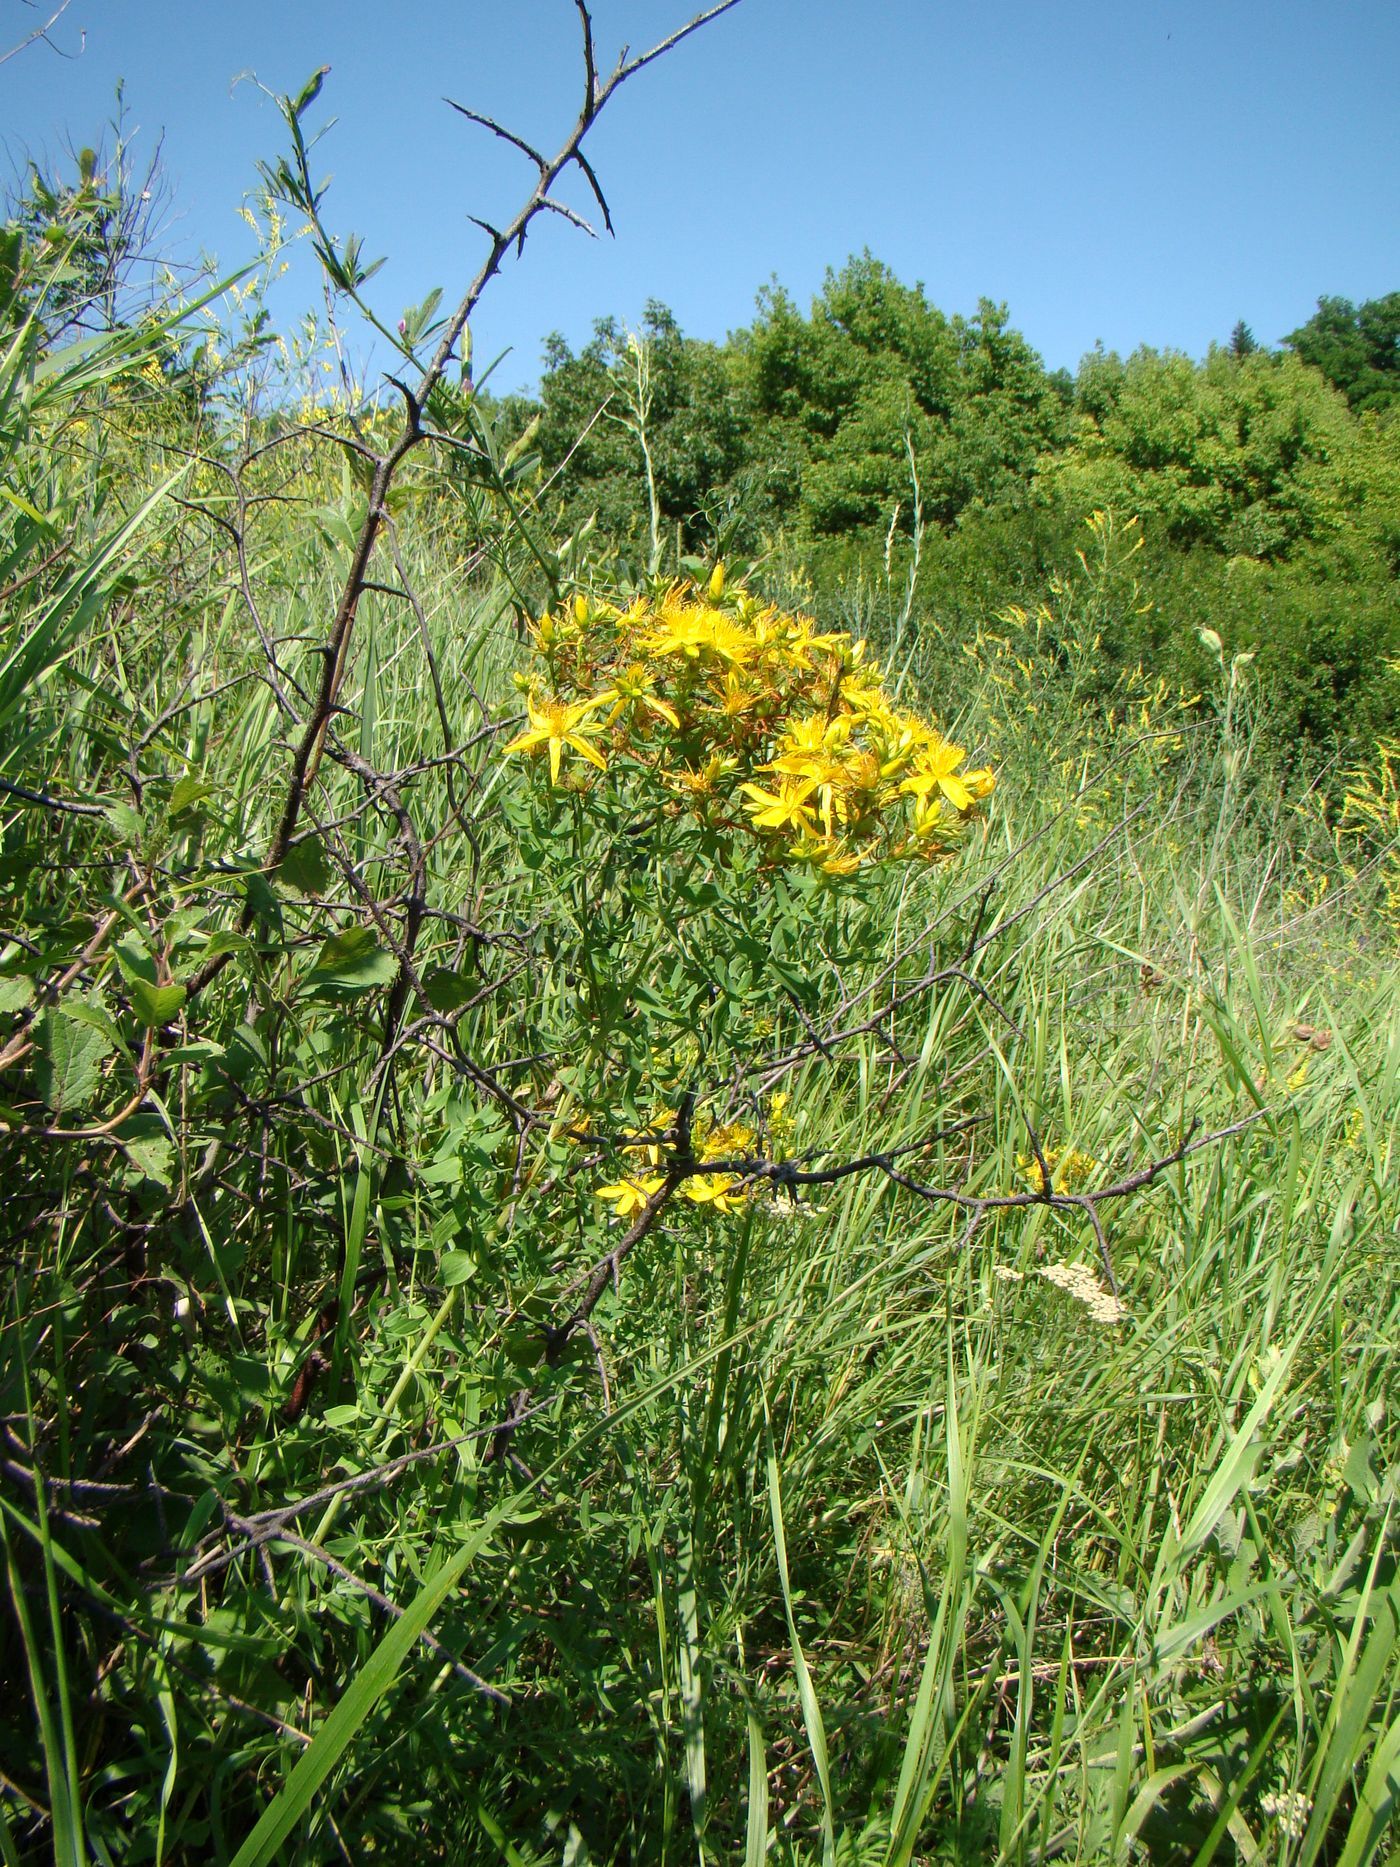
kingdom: Plantae
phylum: Tracheophyta
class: Magnoliopsida
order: Malpighiales
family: Hypericaceae
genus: Hypericum
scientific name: Hypericum perforatum
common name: Common st. johnswort
